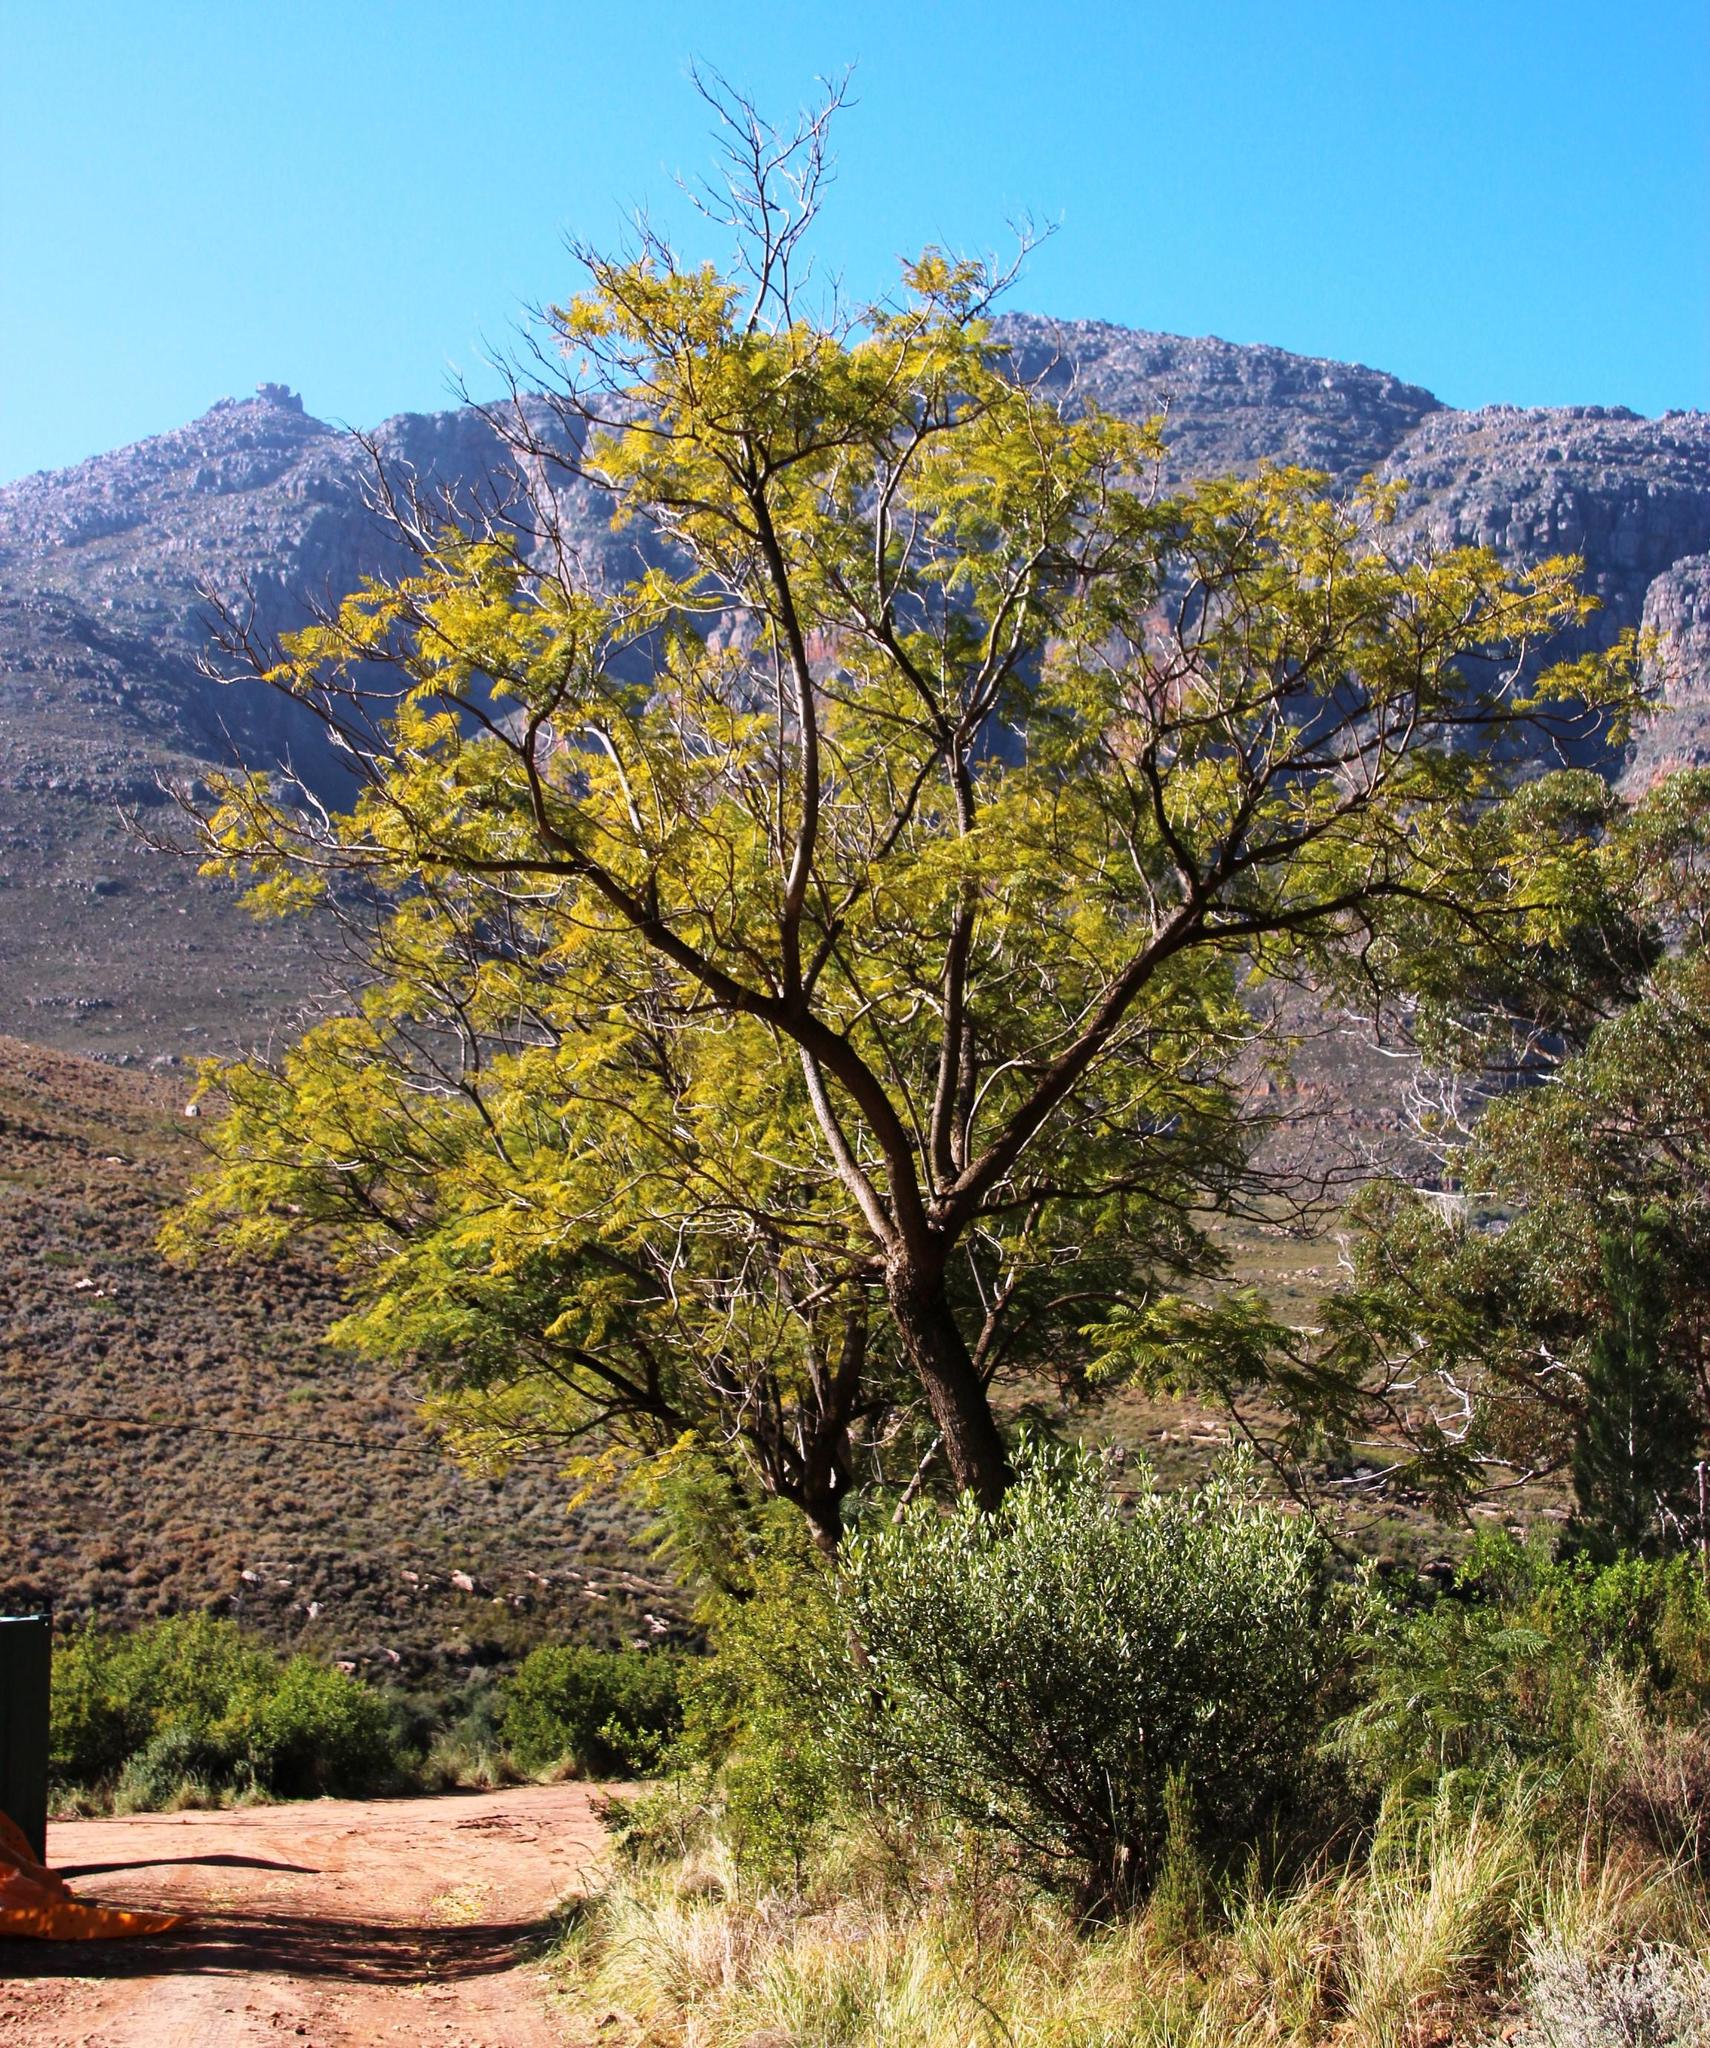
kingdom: Plantae
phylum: Tracheophyta
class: Magnoliopsida
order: Lamiales
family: Bignoniaceae
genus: Jacaranda
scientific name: Jacaranda mimosifolia
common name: Black poui
